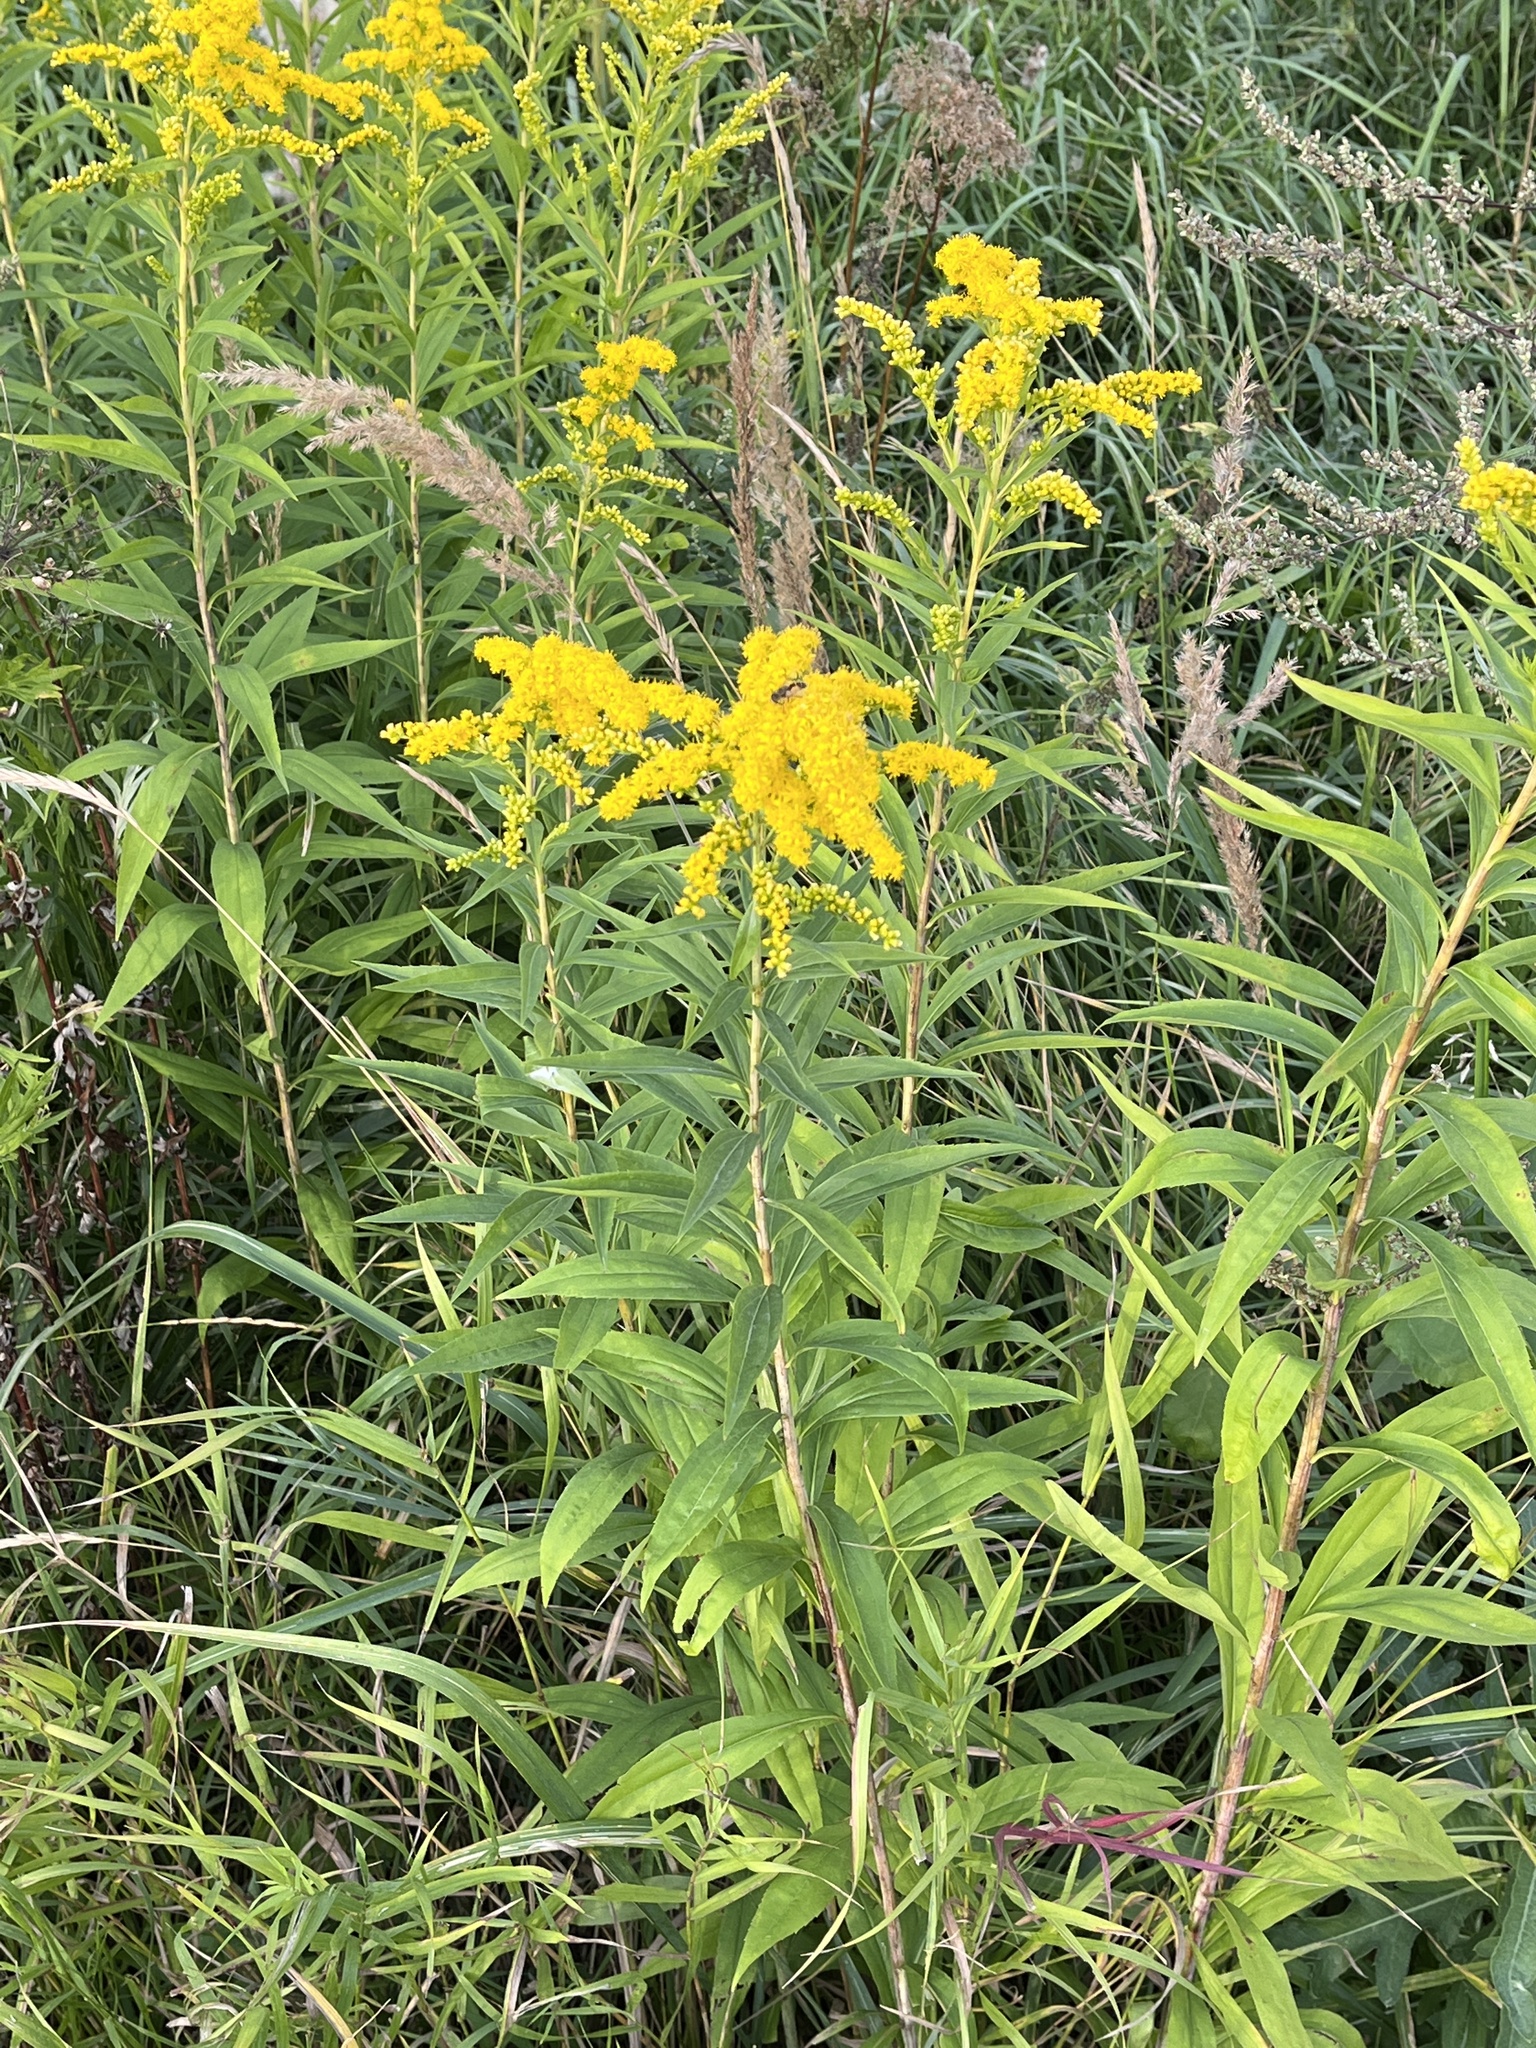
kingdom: Plantae
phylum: Tracheophyta
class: Magnoliopsida
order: Asterales
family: Asteraceae
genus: Solidago
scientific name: Solidago gigantea
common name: Giant goldenrod
